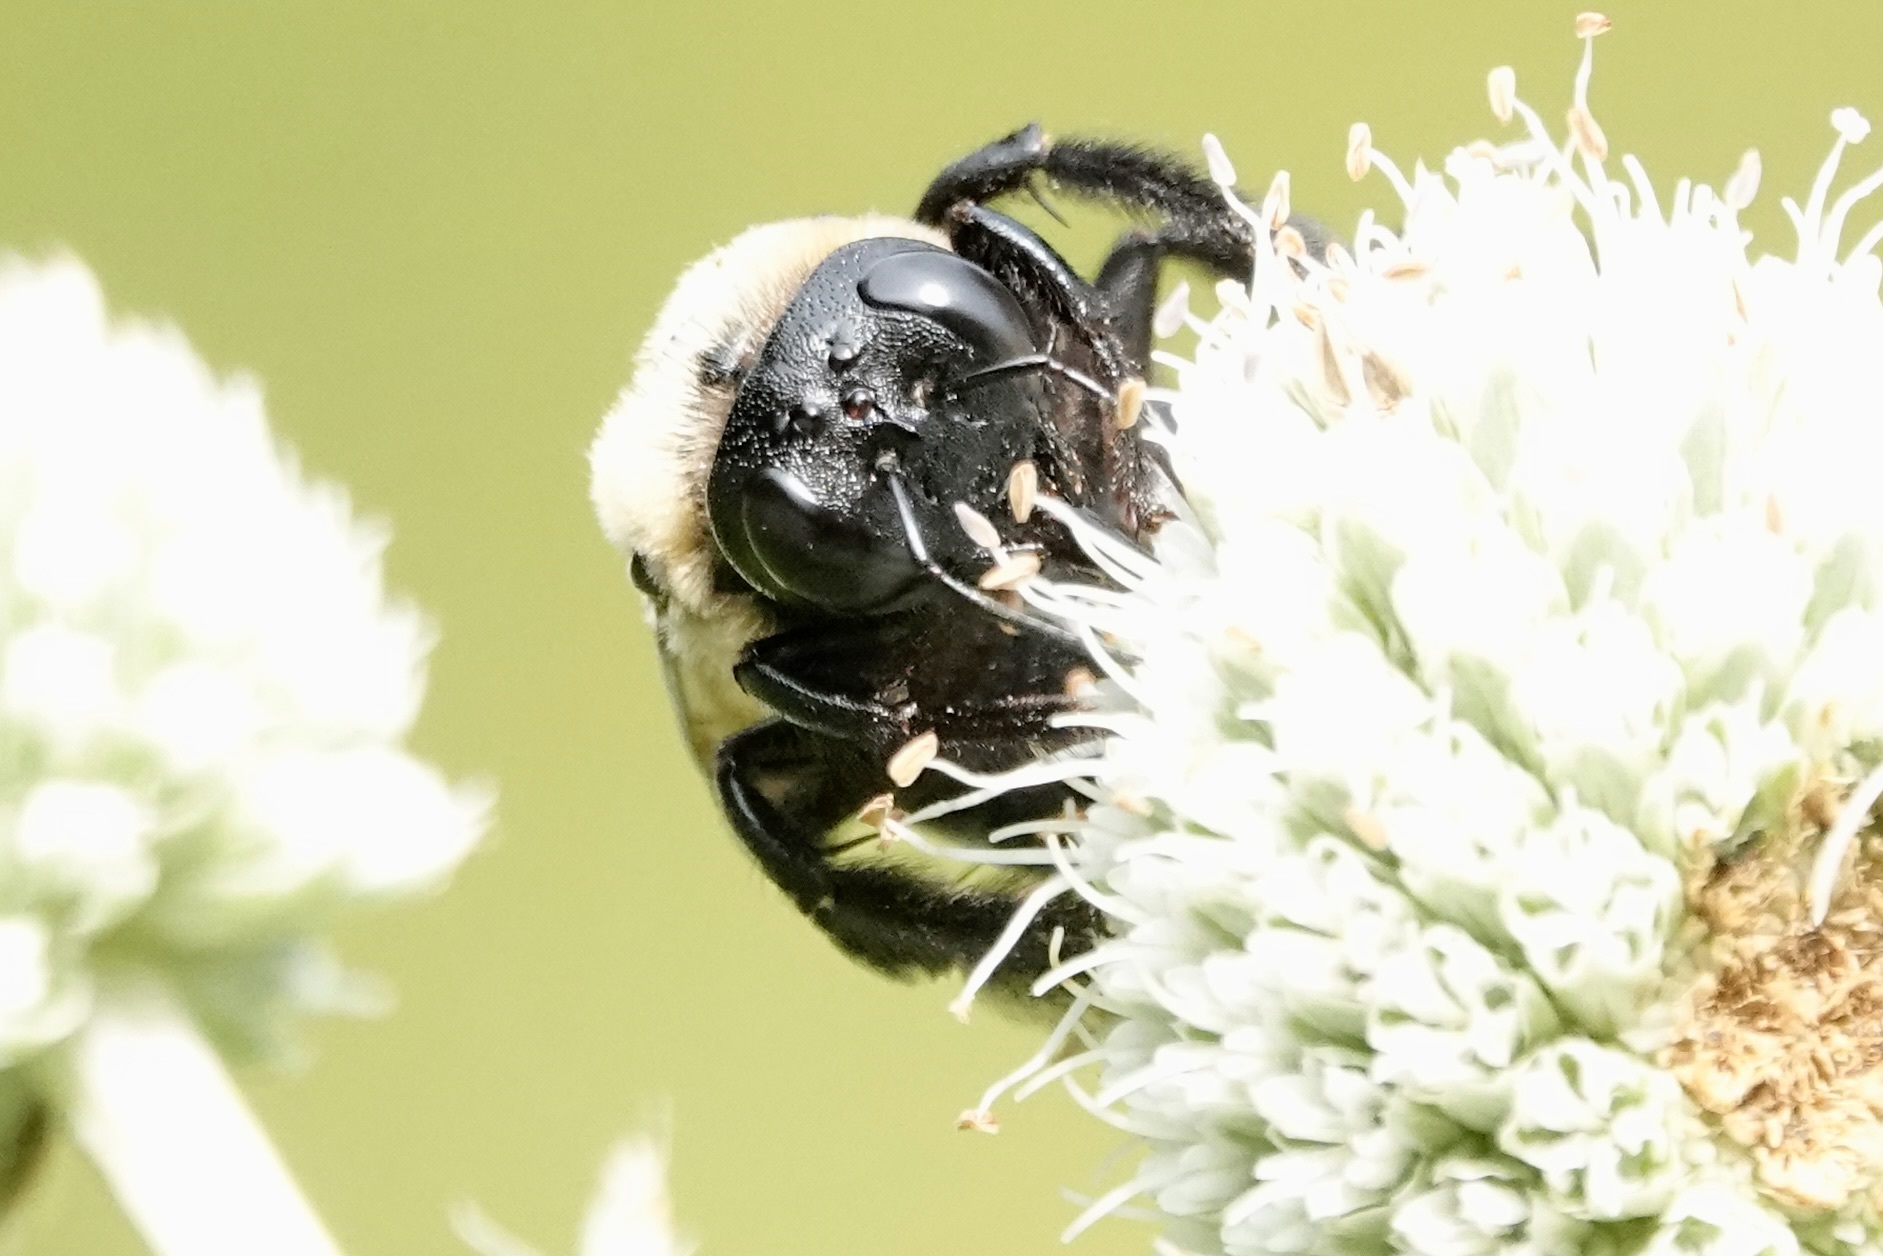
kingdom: Animalia
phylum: Arthropoda
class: Insecta
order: Hymenoptera
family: Apidae
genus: Xylocopa
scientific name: Xylocopa virginica
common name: Carpenter bee
